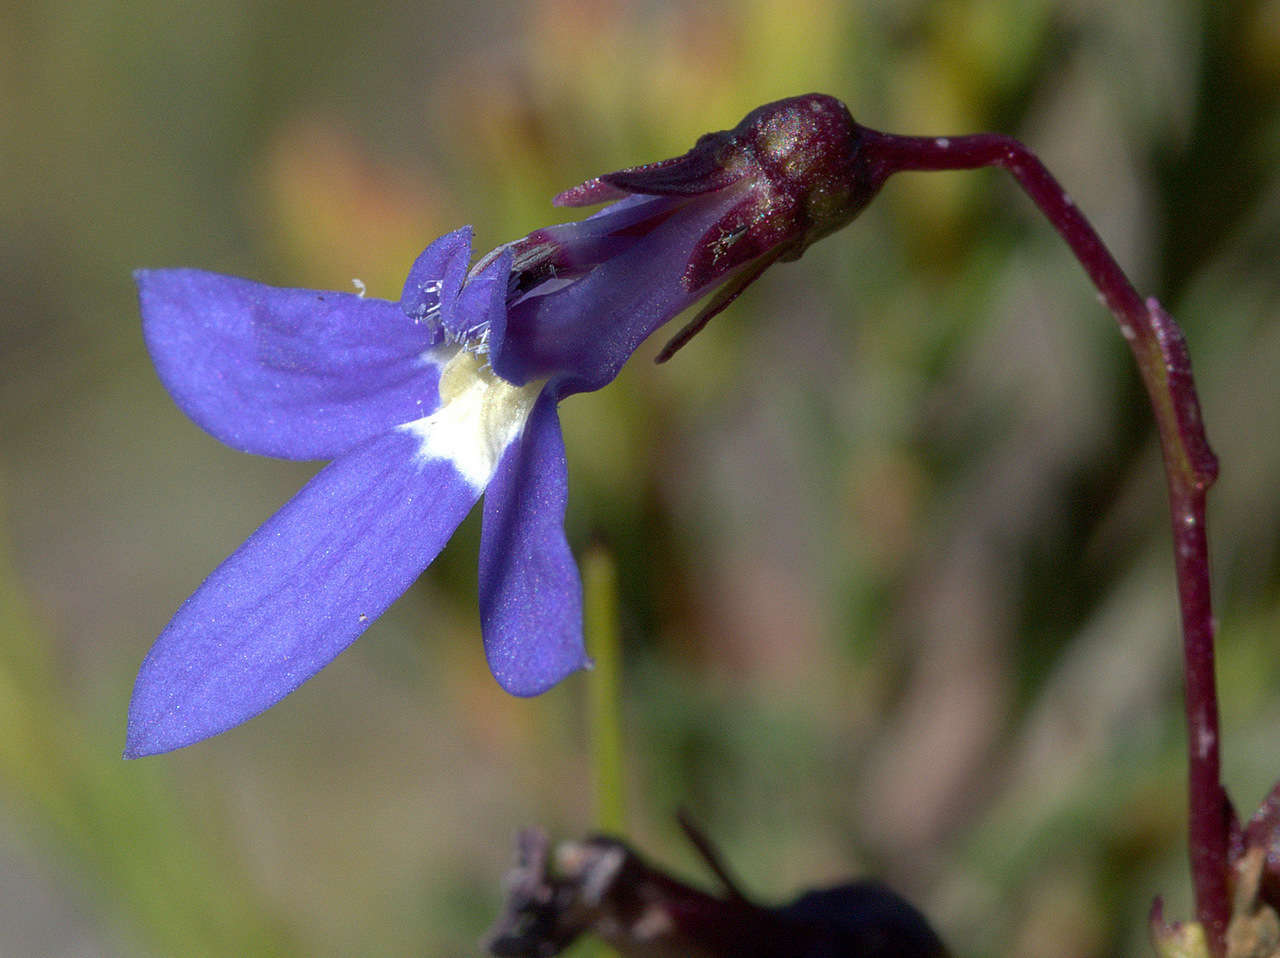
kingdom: Plantae
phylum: Tracheophyta
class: Magnoliopsida
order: Asterales
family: Campanulaceae
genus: Lobelia
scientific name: Lobelia rhombifolia
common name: Tufted lobelia
